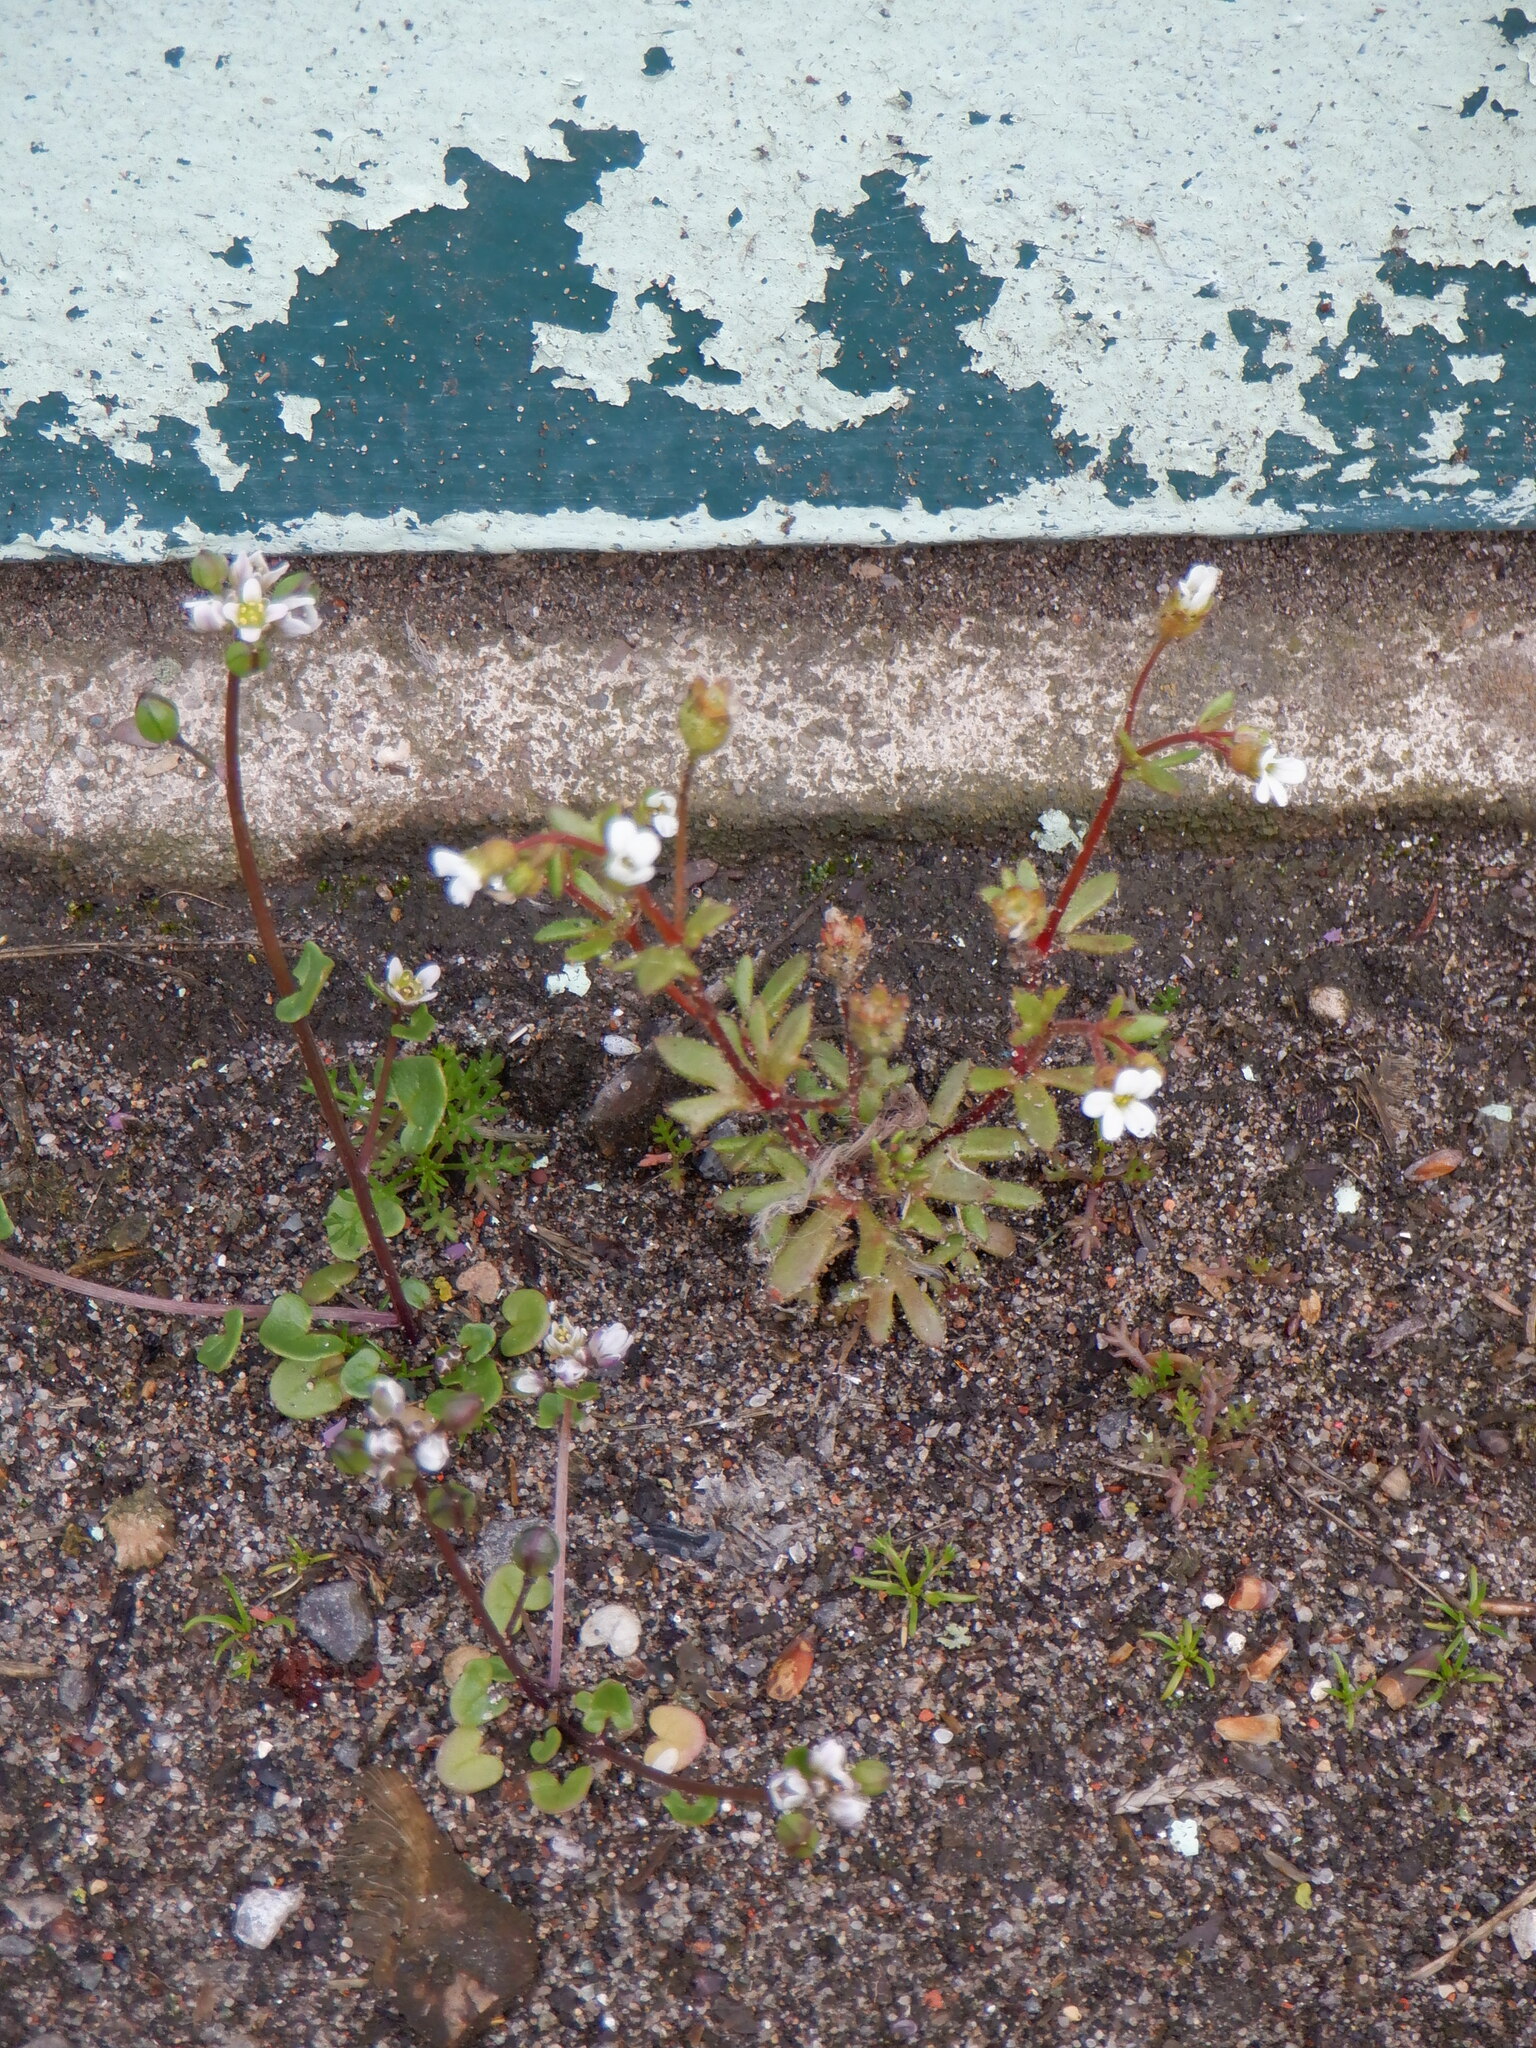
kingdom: Plantae
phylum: Tracheophyta
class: Magnoliopsida
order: Saxifragales
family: Saxifragaceae
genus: Saxifraga
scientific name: Saxifraga tridactylites
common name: Rue-leaved saxifrage
